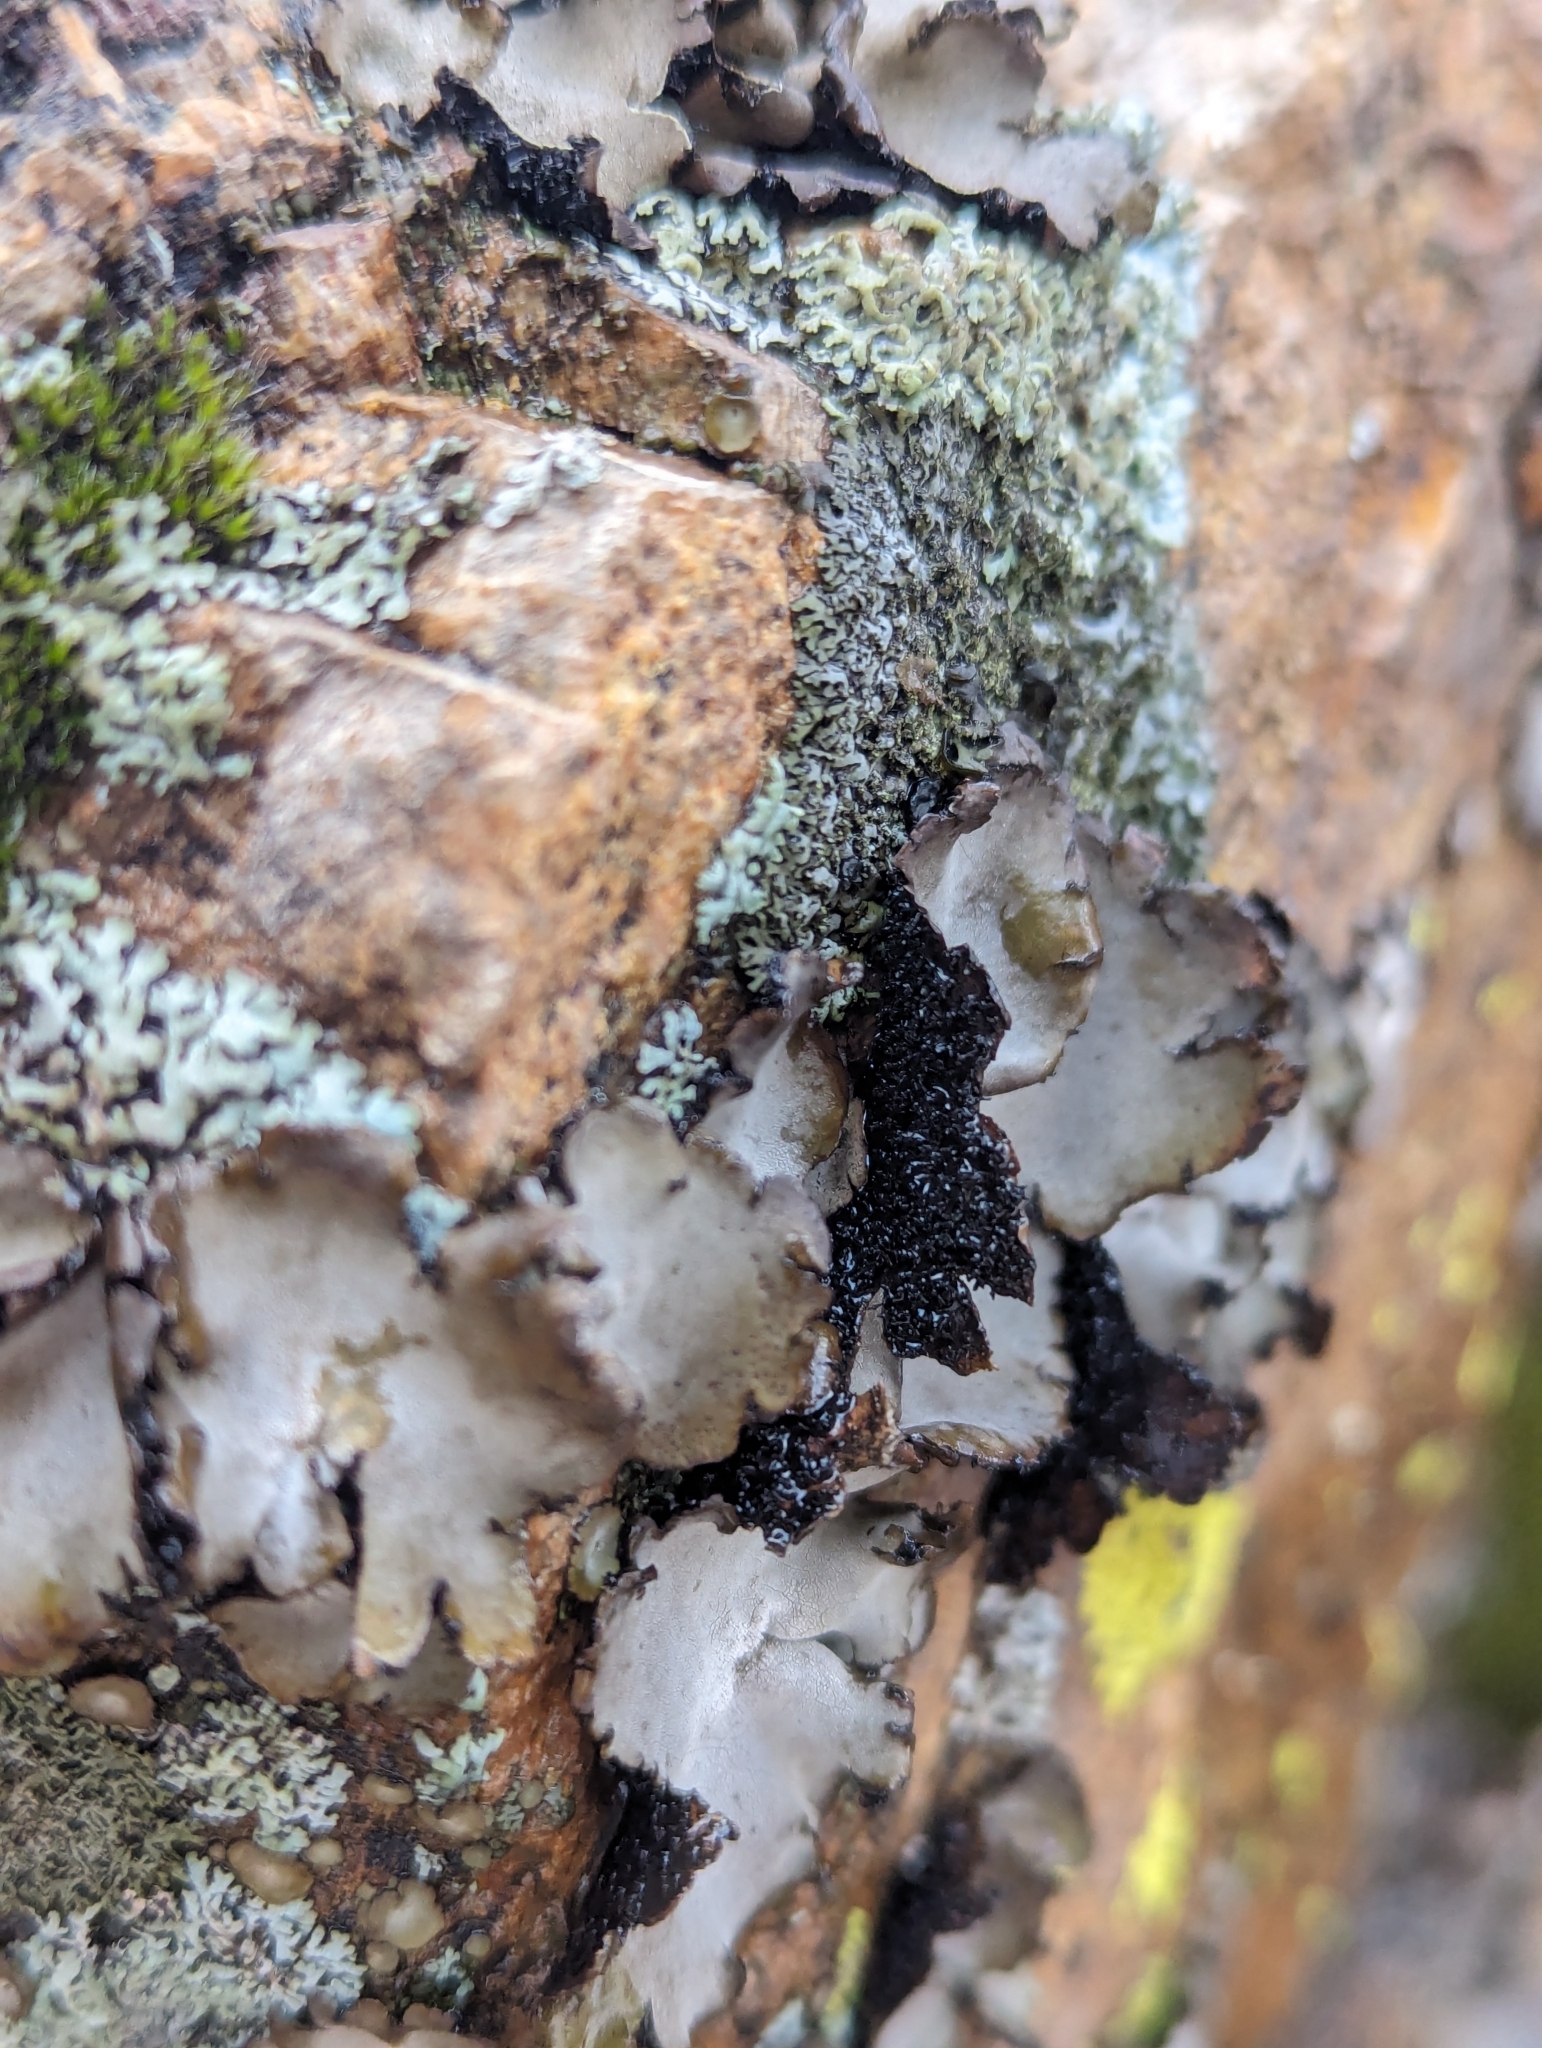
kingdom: Fungi
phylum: Ascomycota
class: Lecanoromycetes
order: Umbilicariales
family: Umbilicariaceae
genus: Umbilicaria
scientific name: Umbilicaria americana
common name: Frosted rock tripe
